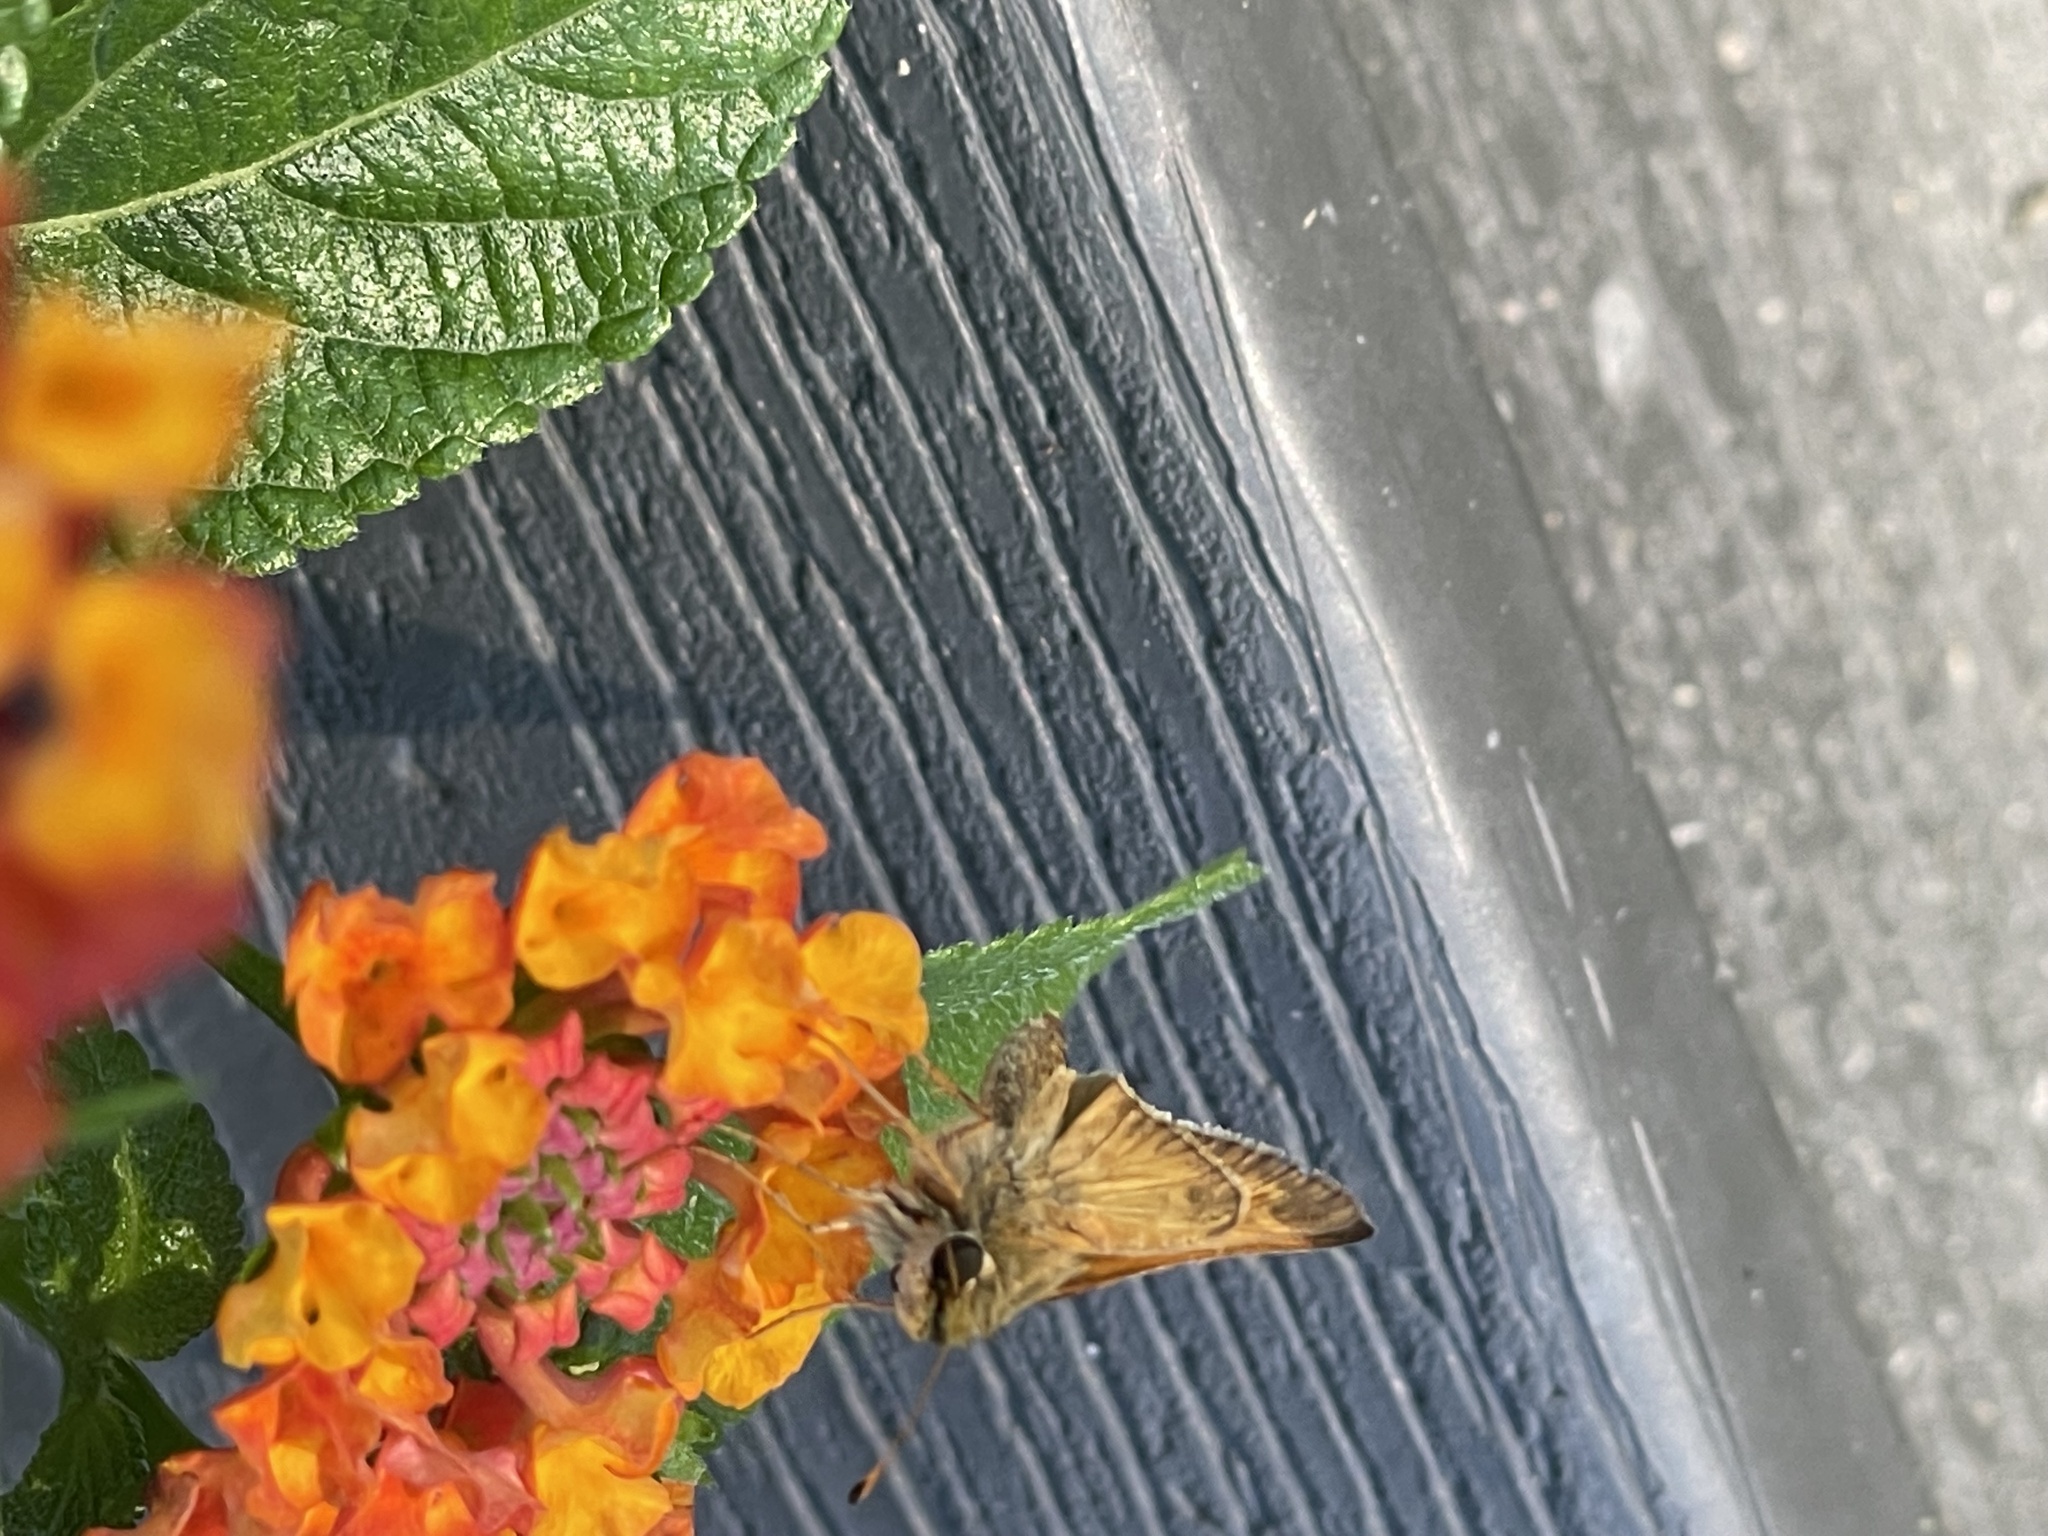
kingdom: Animalia
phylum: Arthropoda
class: Insecta
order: Lepidoptera
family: Hesperiidae
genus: Atalopedes
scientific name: Atalopedes
